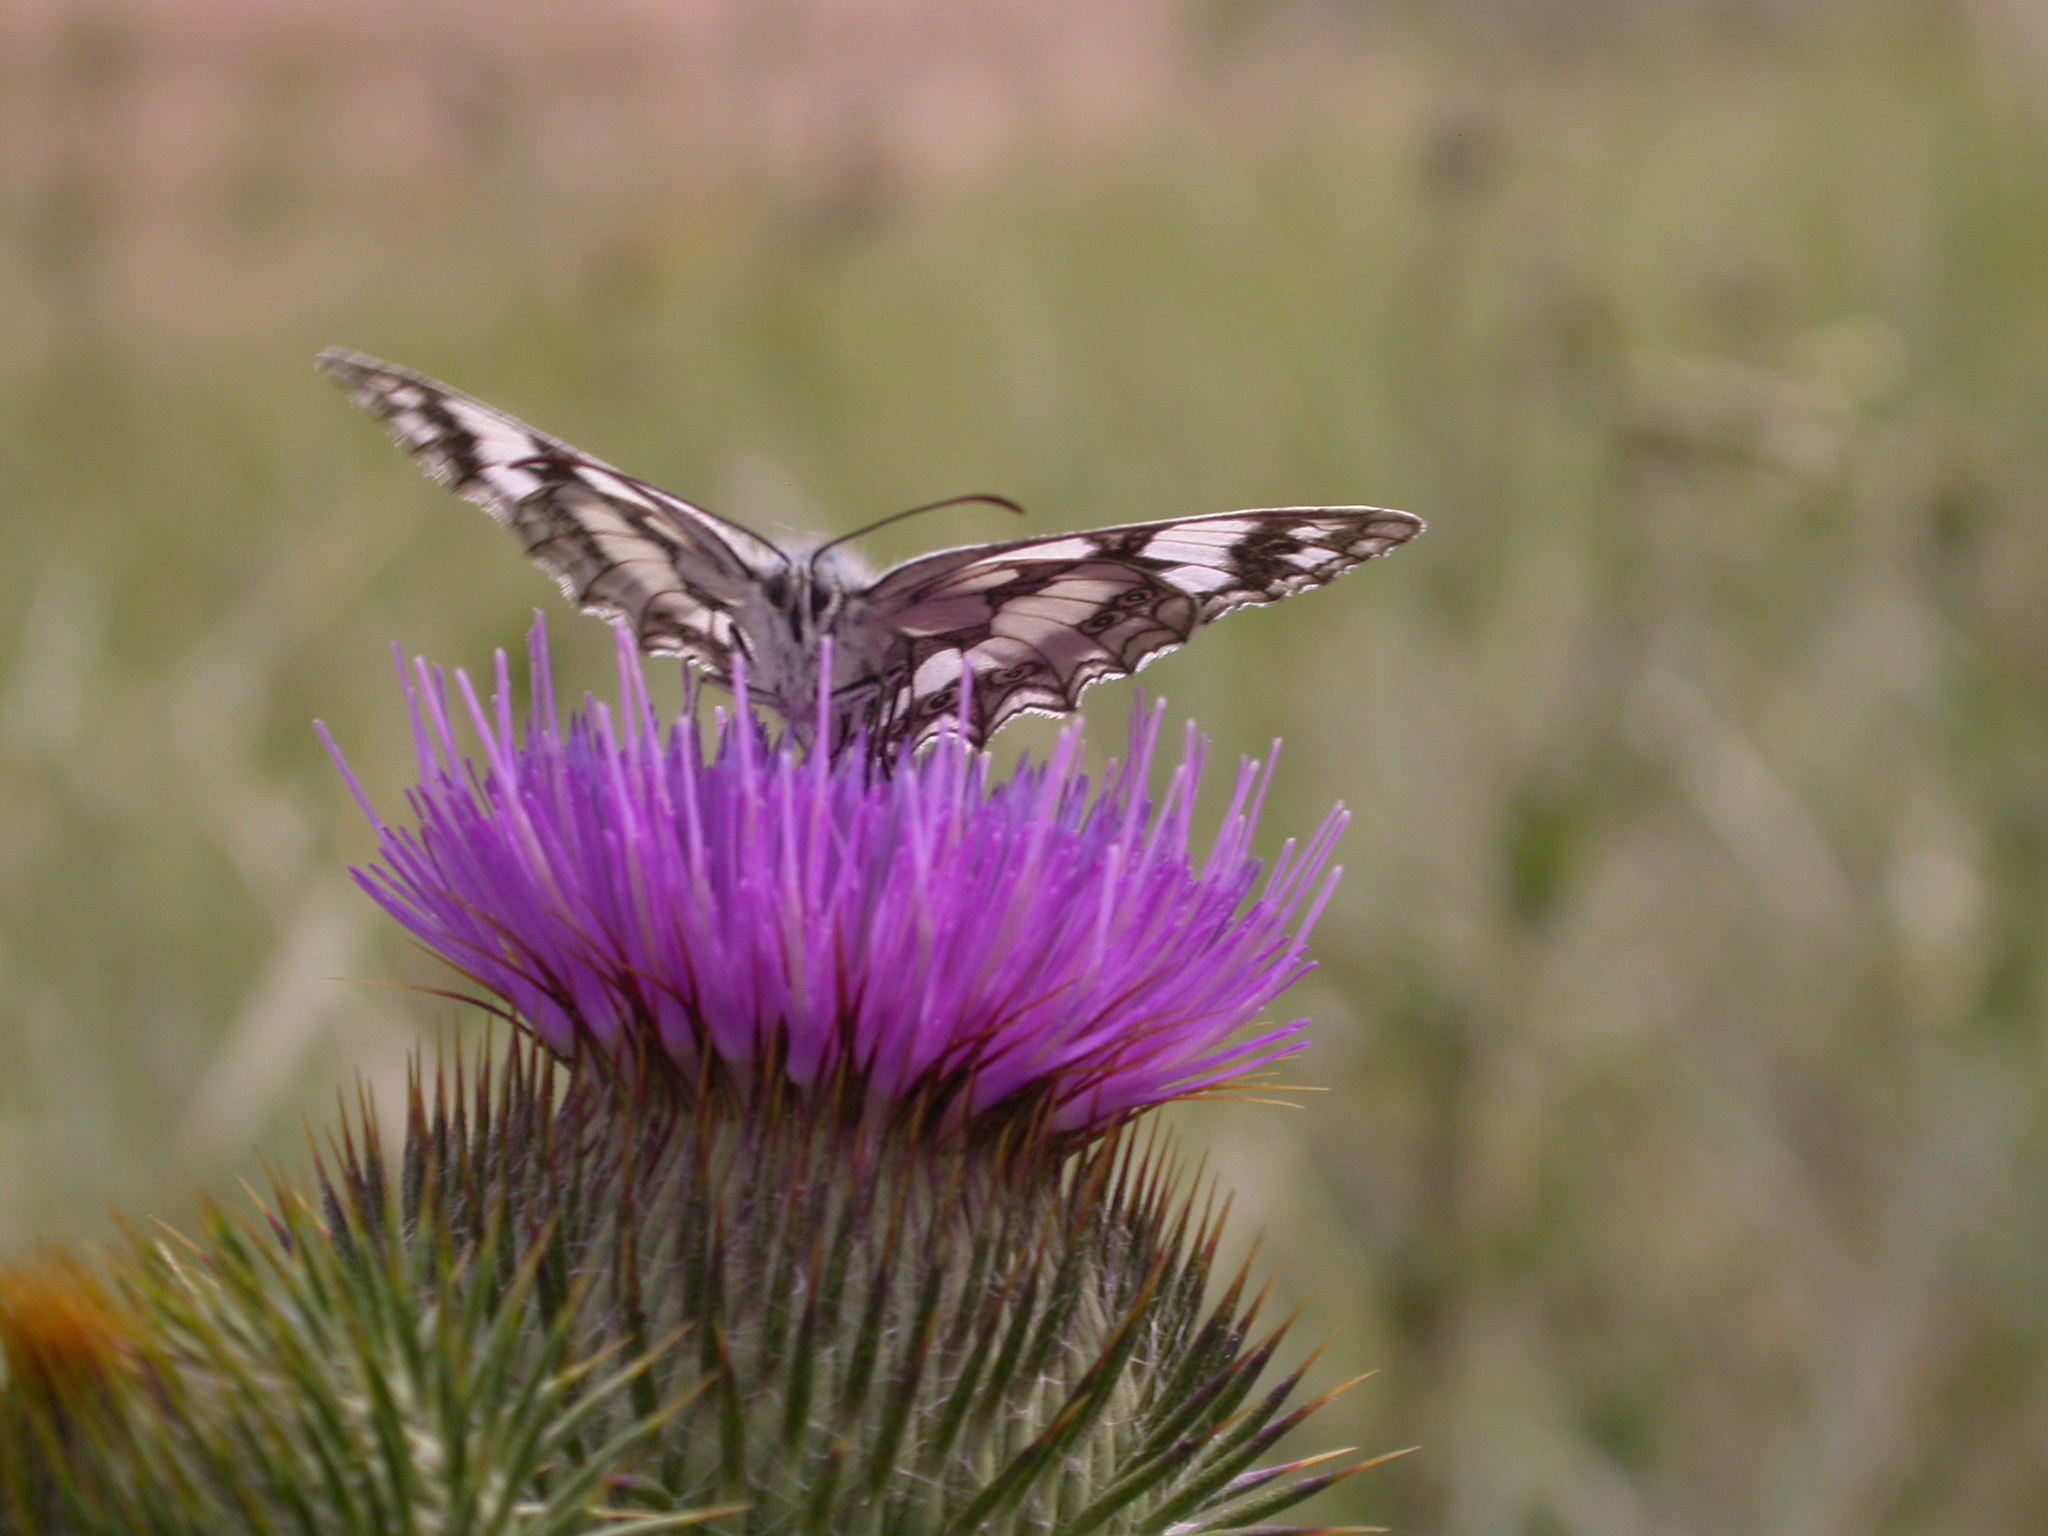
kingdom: Animalia
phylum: Arthropoda
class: Insecta
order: Lepidoptera
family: Nymphalidae
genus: Melanargia
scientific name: Melanargia galathea
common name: Marbled white
